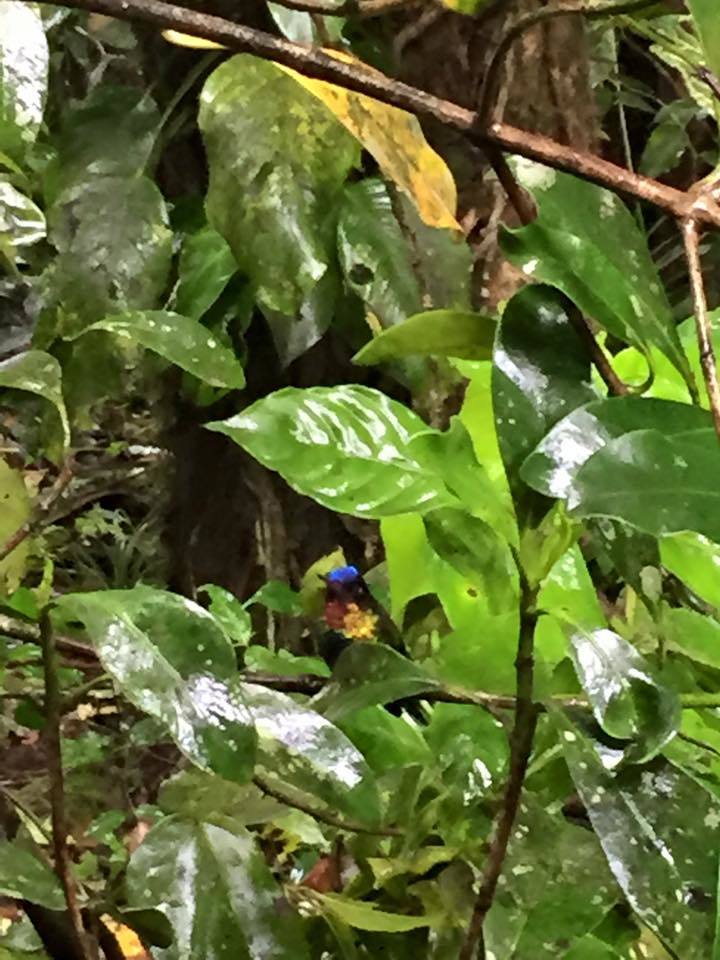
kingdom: Animalia
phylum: Chordata
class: Aves
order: Apodiformes
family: Trochilidae
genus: Panterpe
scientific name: Panterpe insignis
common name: Fiery-throated hummingbird
